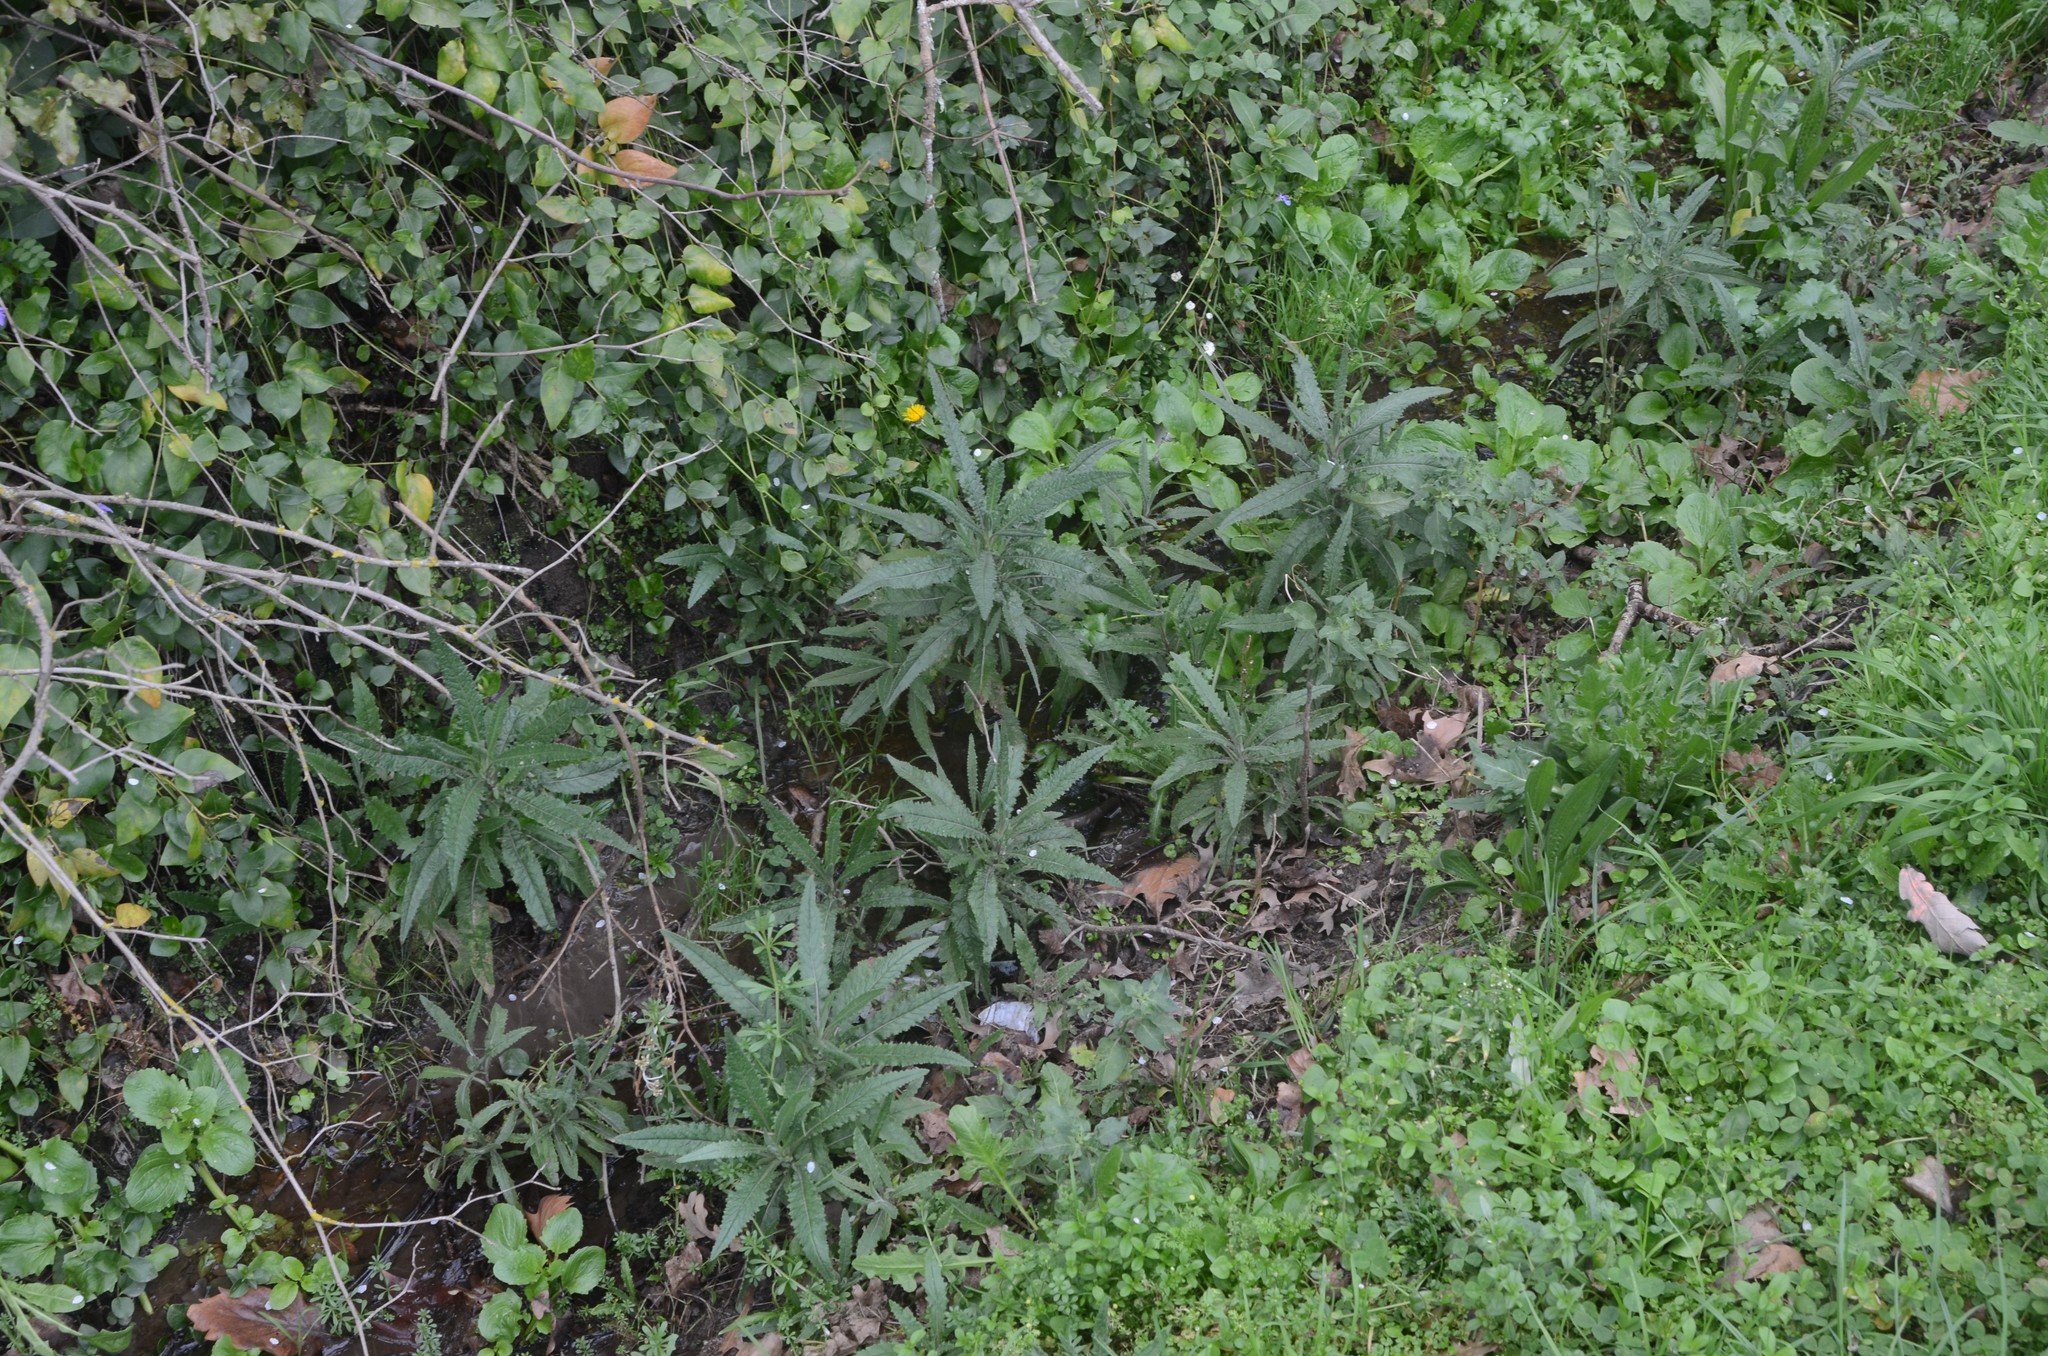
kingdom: Plantae
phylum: Tracheophyta
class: Magnoliopsida
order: Asterales
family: Asteraceae
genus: Senecio
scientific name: Senecio minimus
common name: Toothed fireweed
